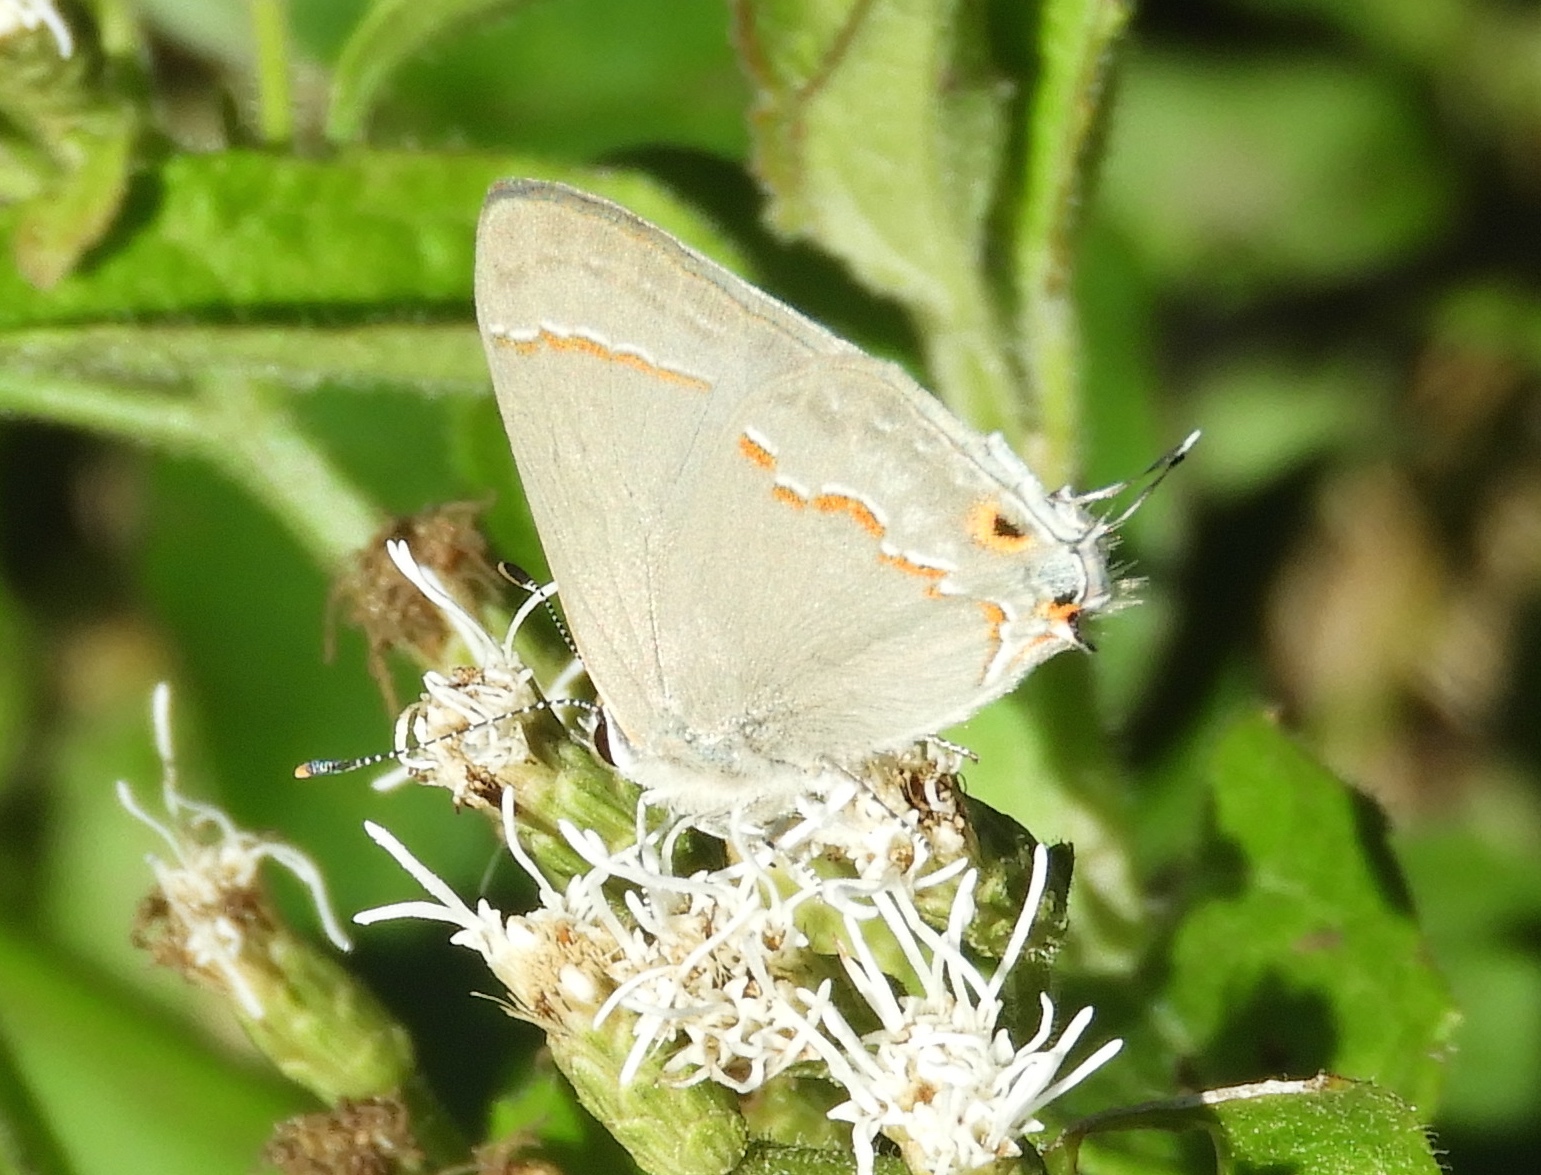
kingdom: Animalia
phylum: Arthropoda
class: Insecta
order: Lepidoptera
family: Lycaenidae
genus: Strymon
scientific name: Strymon
